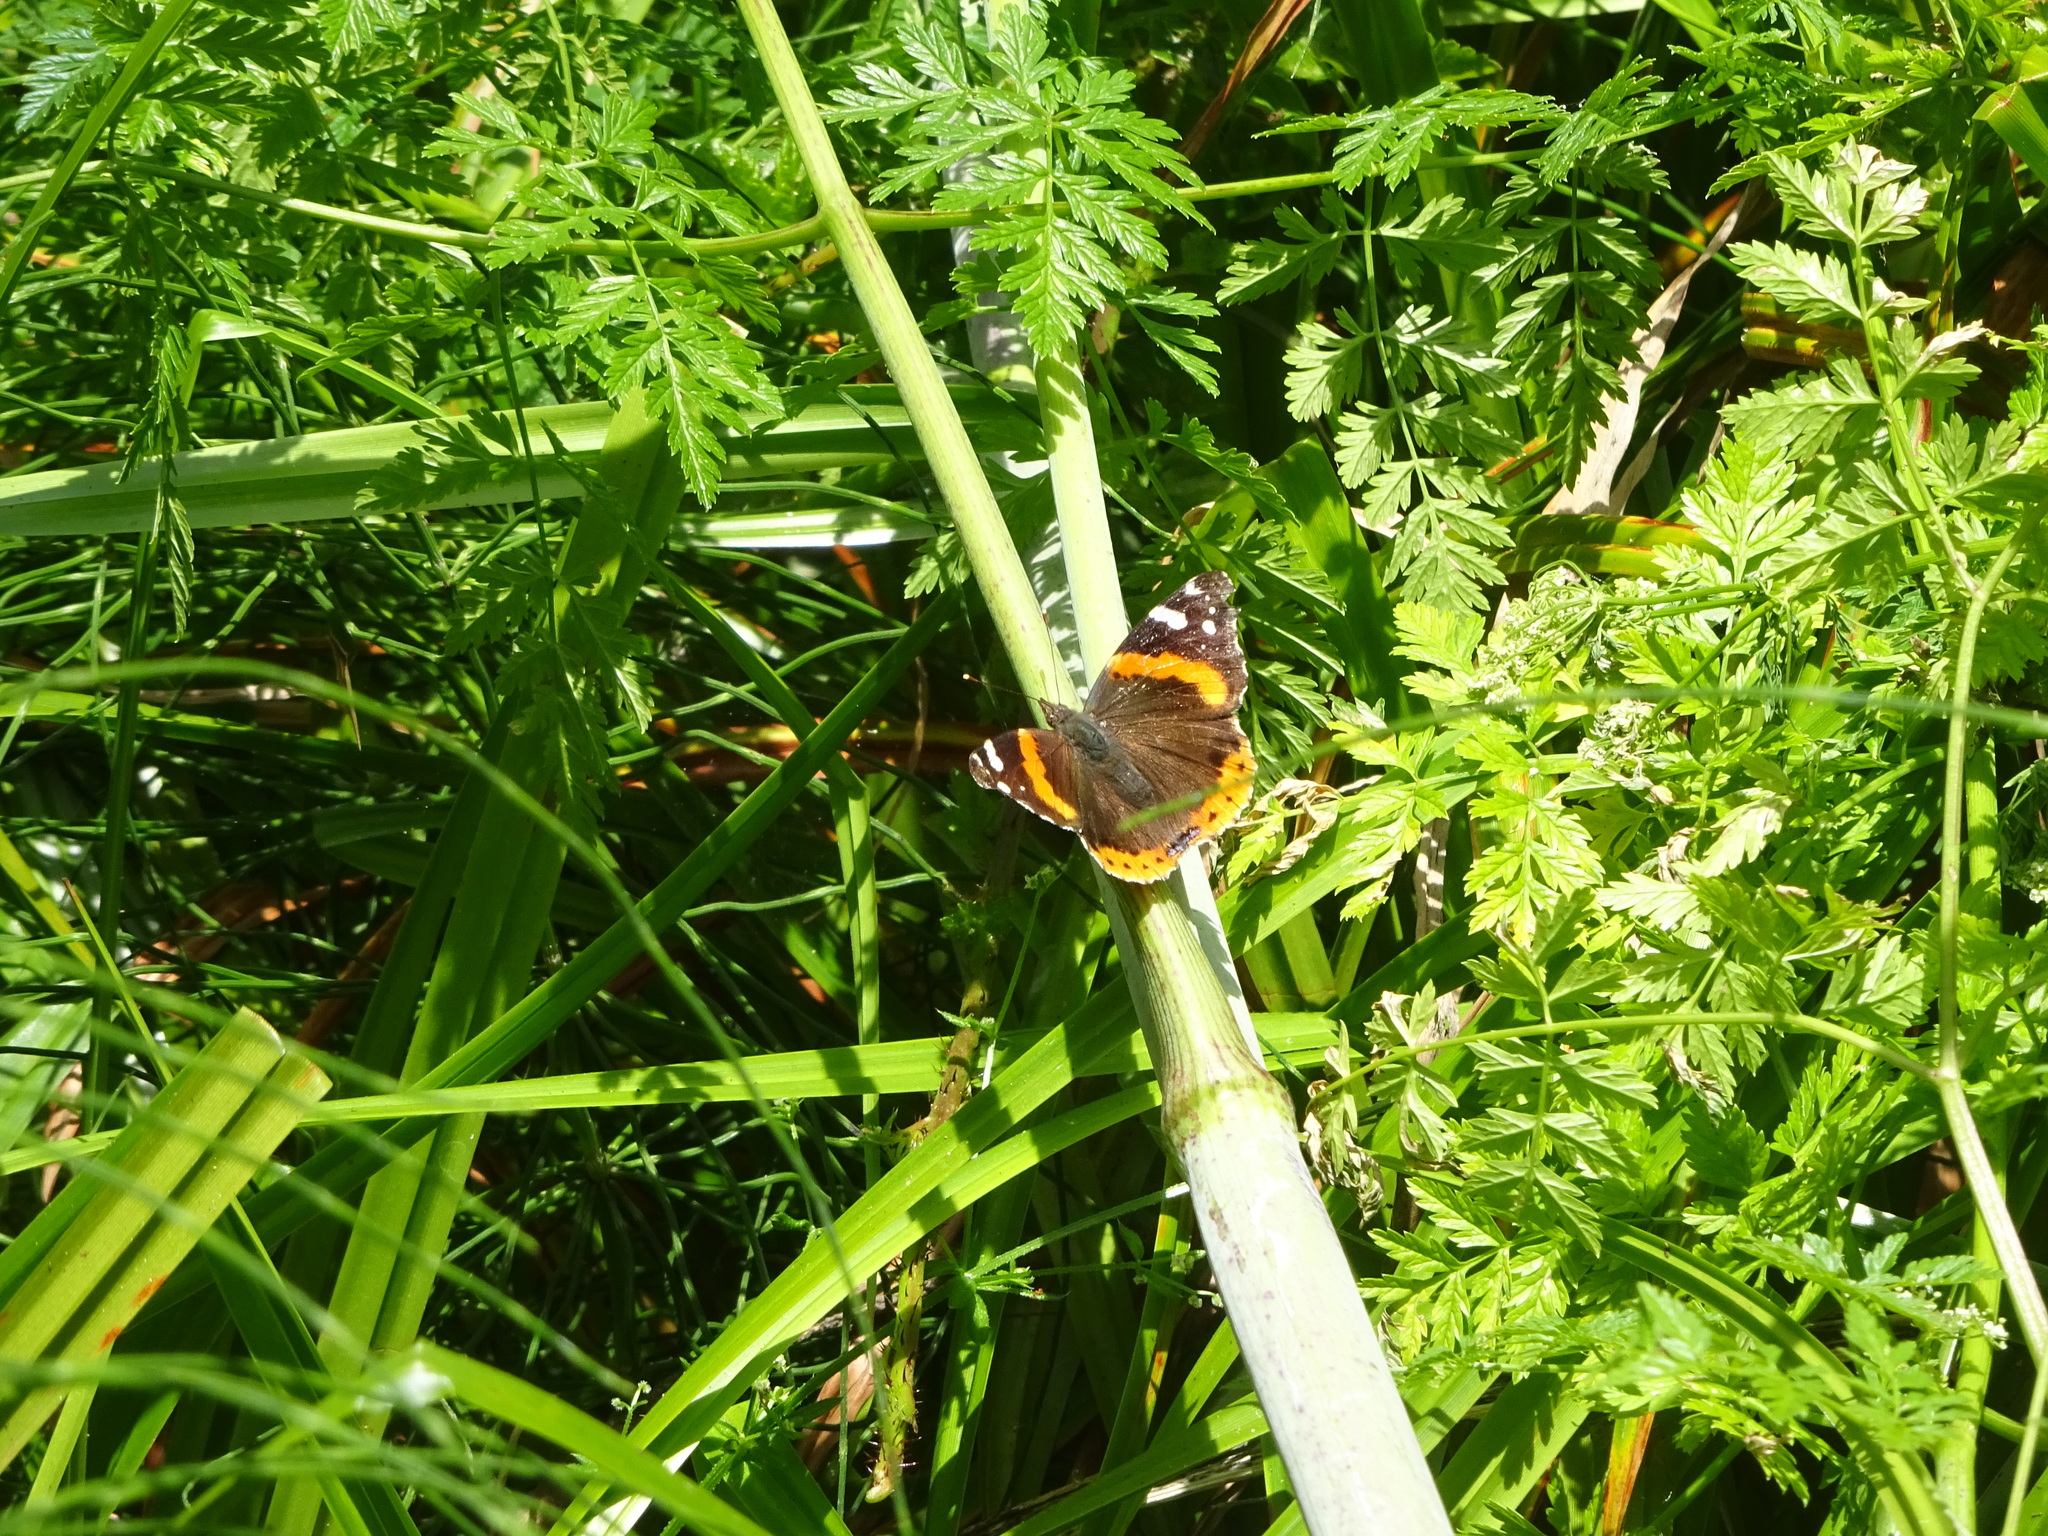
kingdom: Animalia
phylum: Arthropoda
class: Insecta
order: Lepidoptera
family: Nymphalidae
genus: Vanessa
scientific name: Vanessa atalanta
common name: Red admiral
